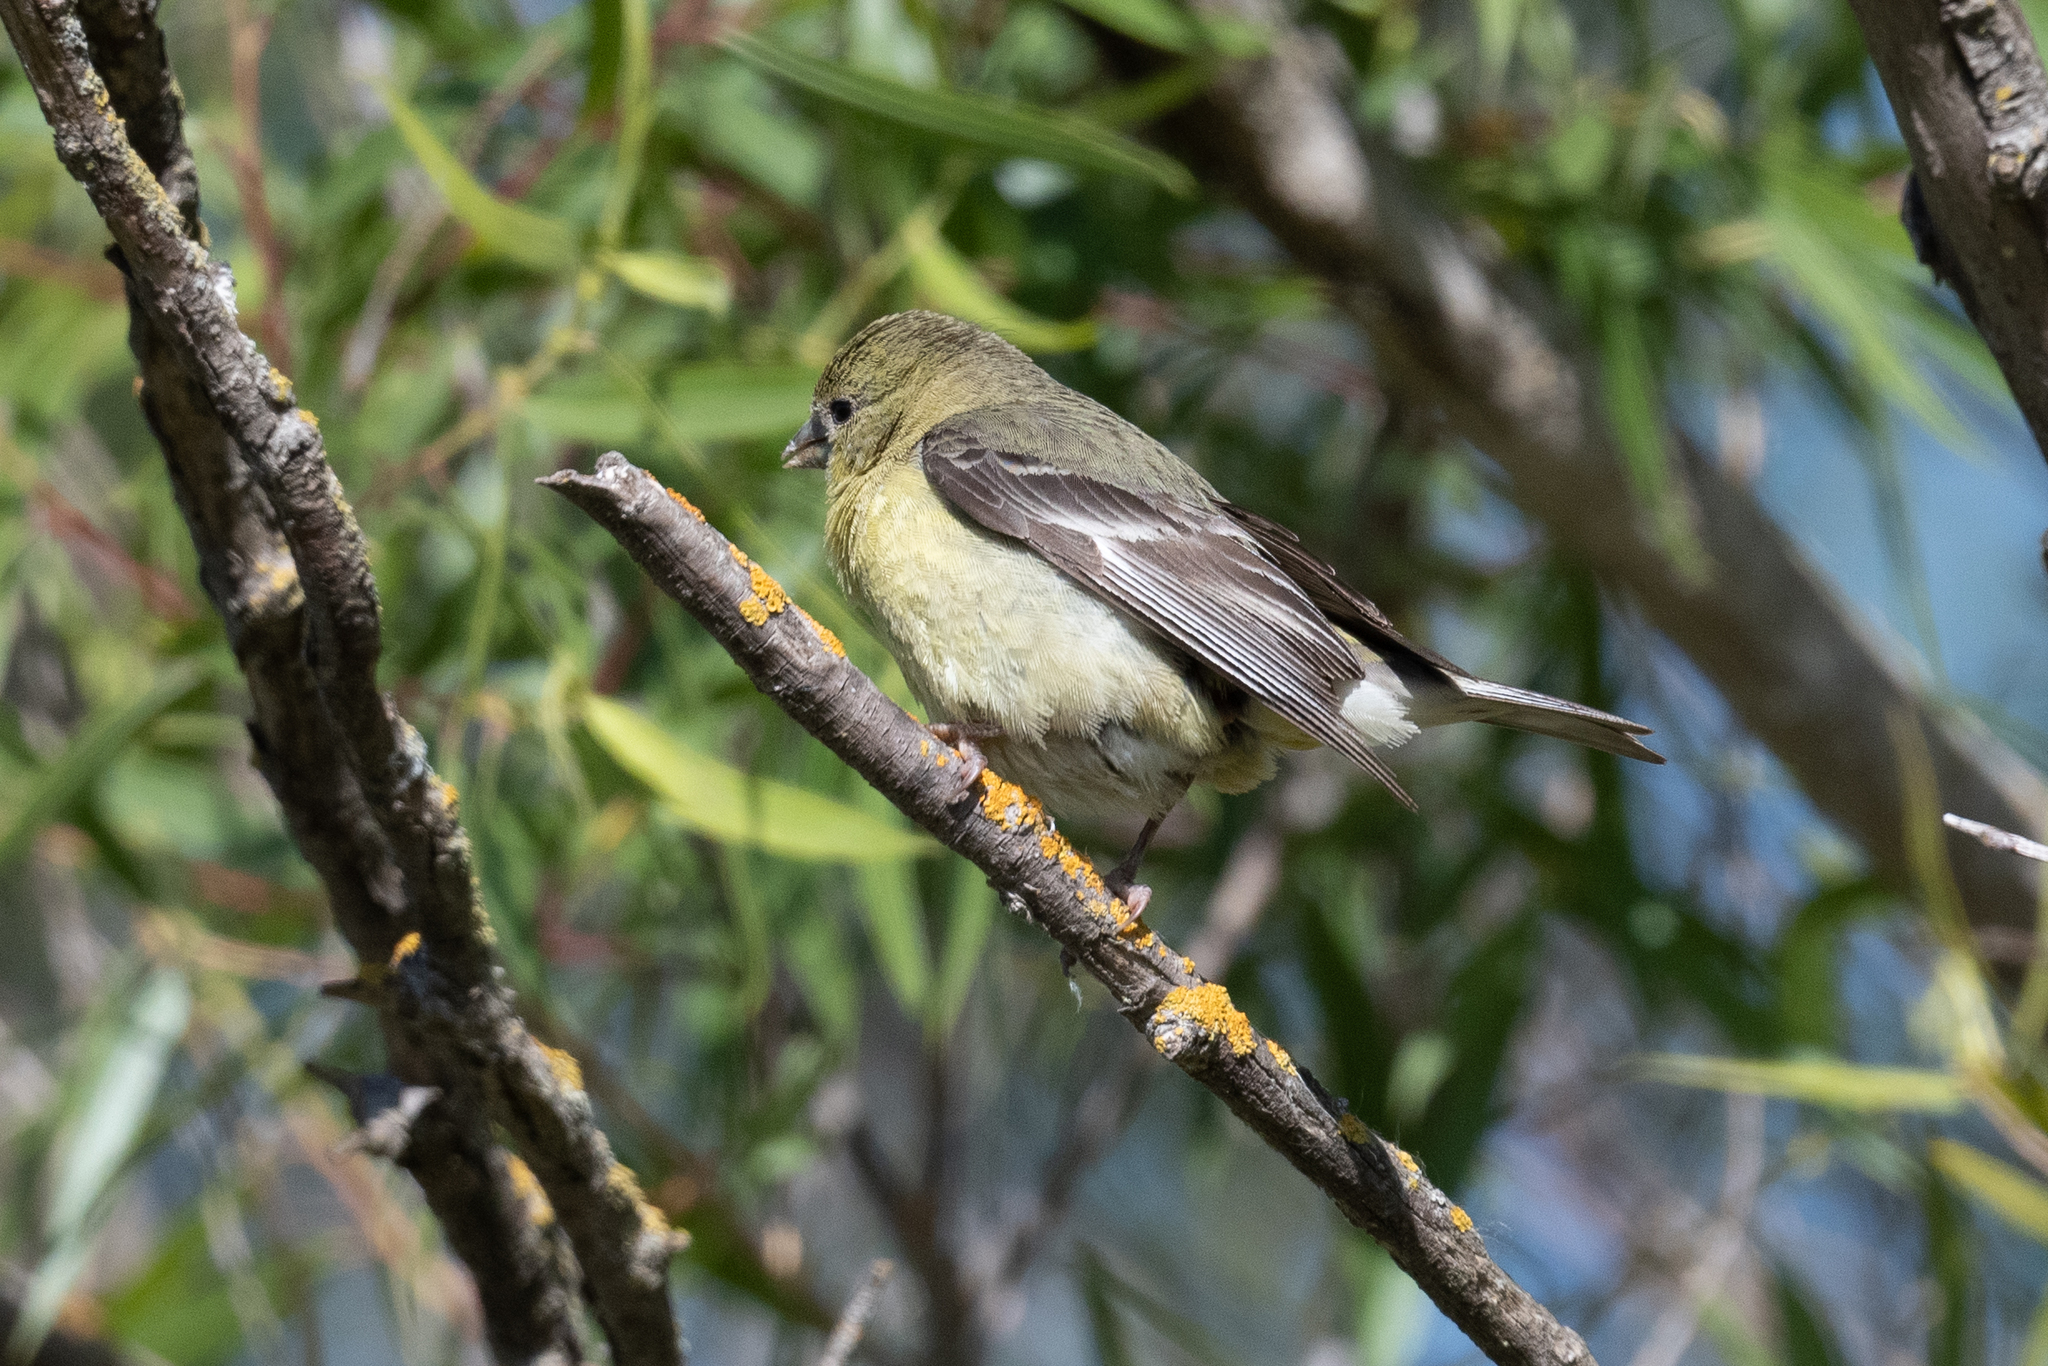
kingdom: Animalia
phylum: Chordata
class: Aves
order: Passeriformes
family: Fringillidae
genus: Spinus
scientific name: Spinus psaltria
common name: Lesser goldfinch
